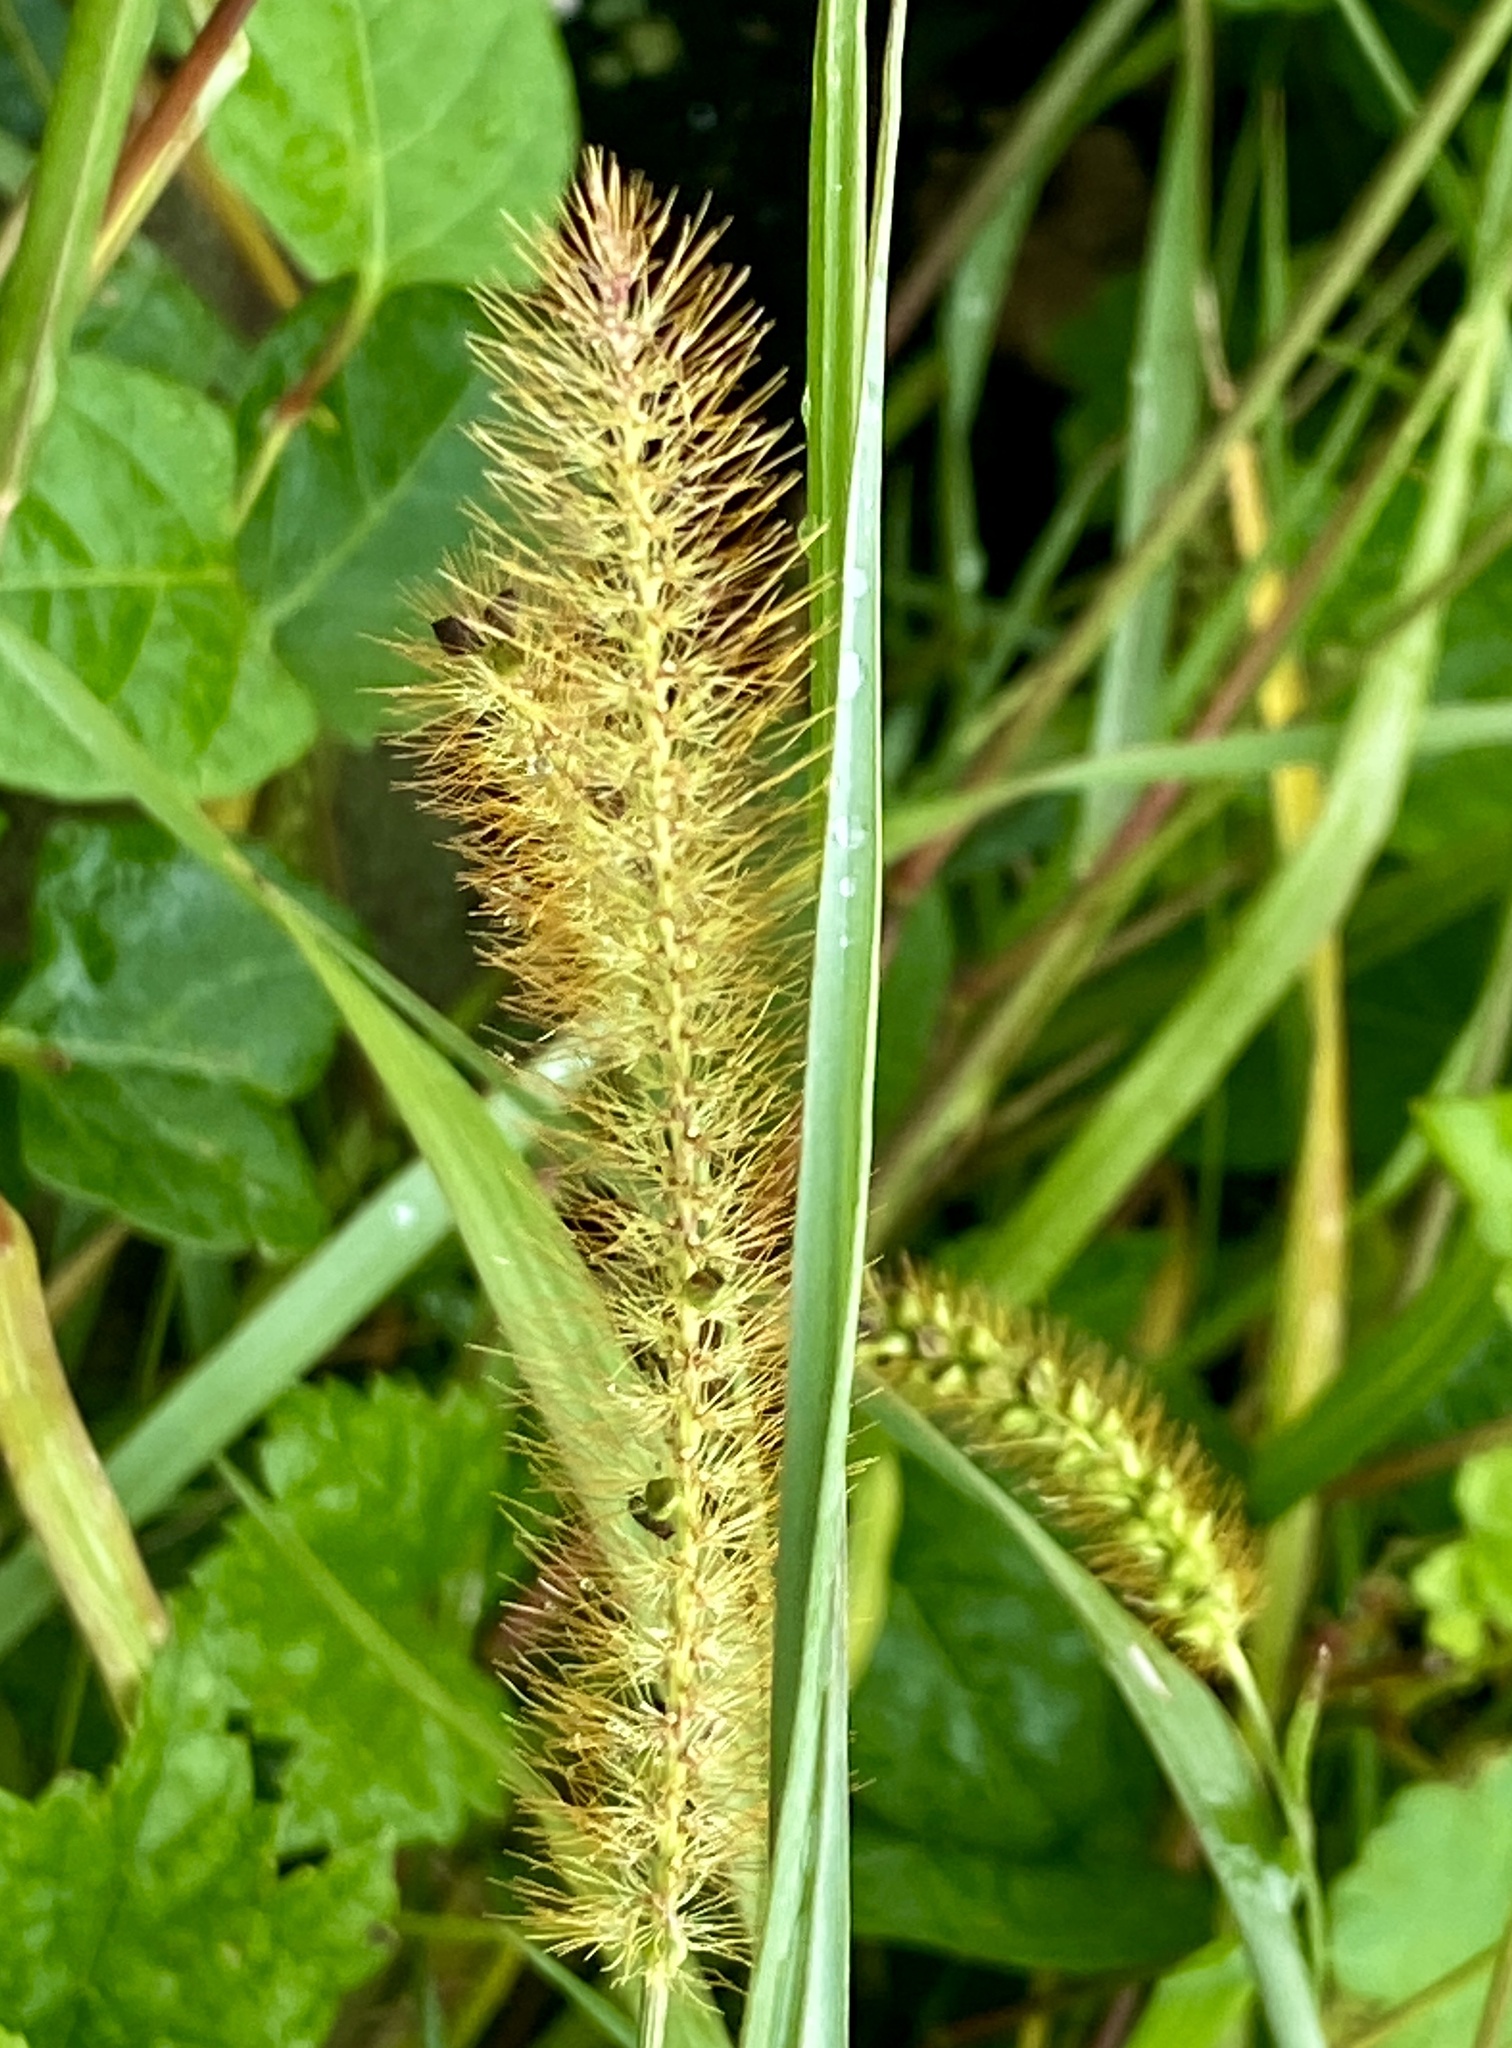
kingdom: Plantae
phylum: Tracheophyta
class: Liliopsida
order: Poales
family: Poaceae
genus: Setaria
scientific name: Setaria pumila
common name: Yellow bristle-grass
